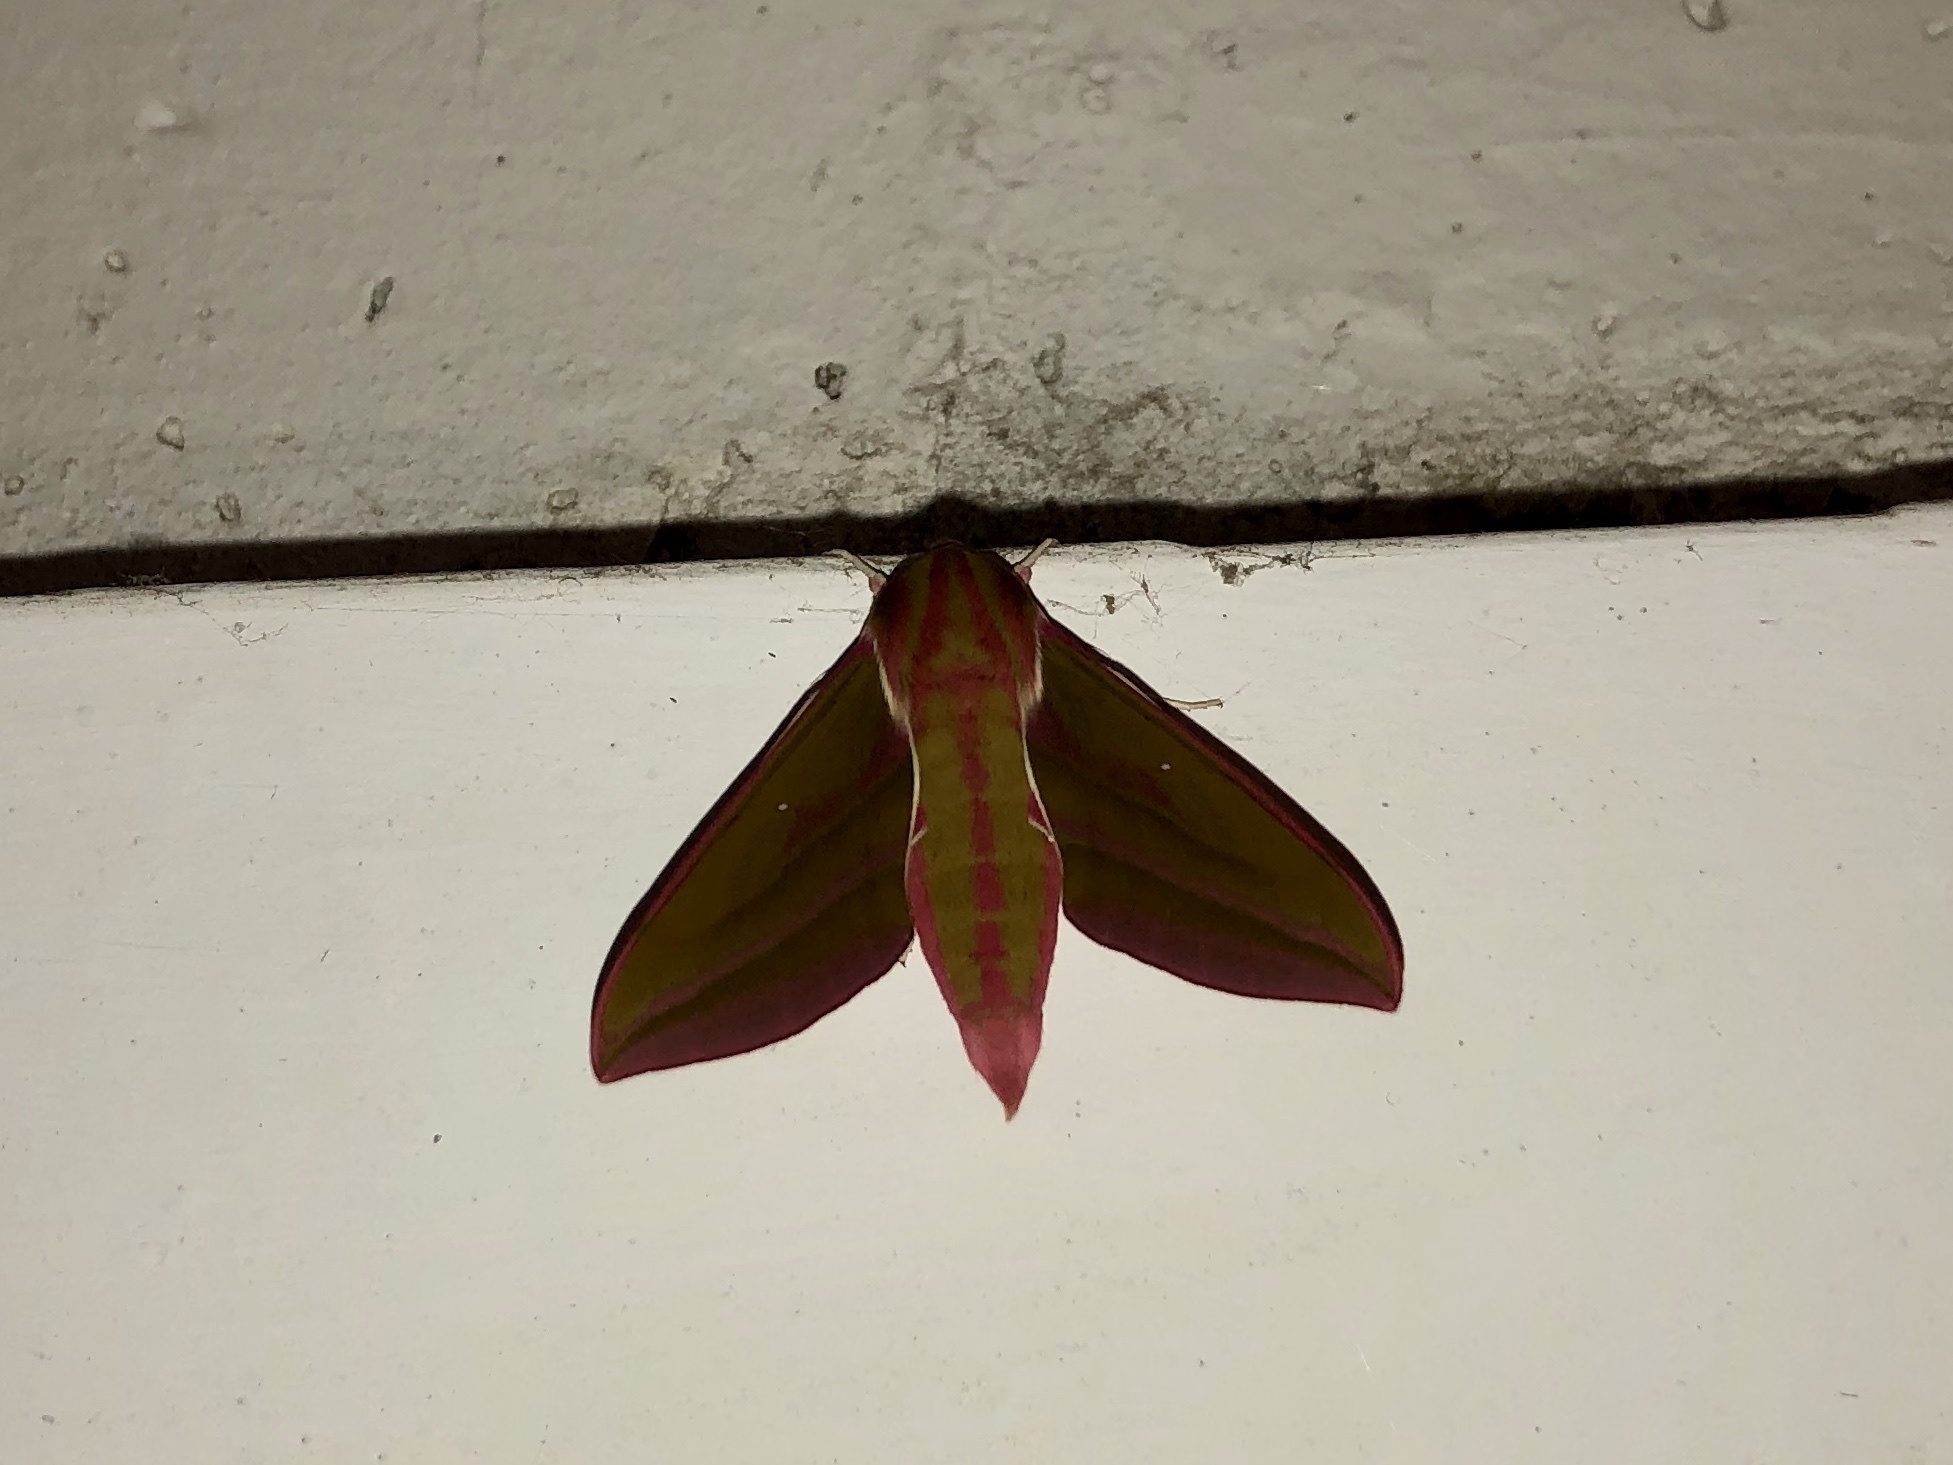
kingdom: Animalia
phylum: Arthropoda
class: Insecta
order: Lepidoptera
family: Sphingidae
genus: Deilephila
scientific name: Deilephila elpenor
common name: Elephant hawk-moth
